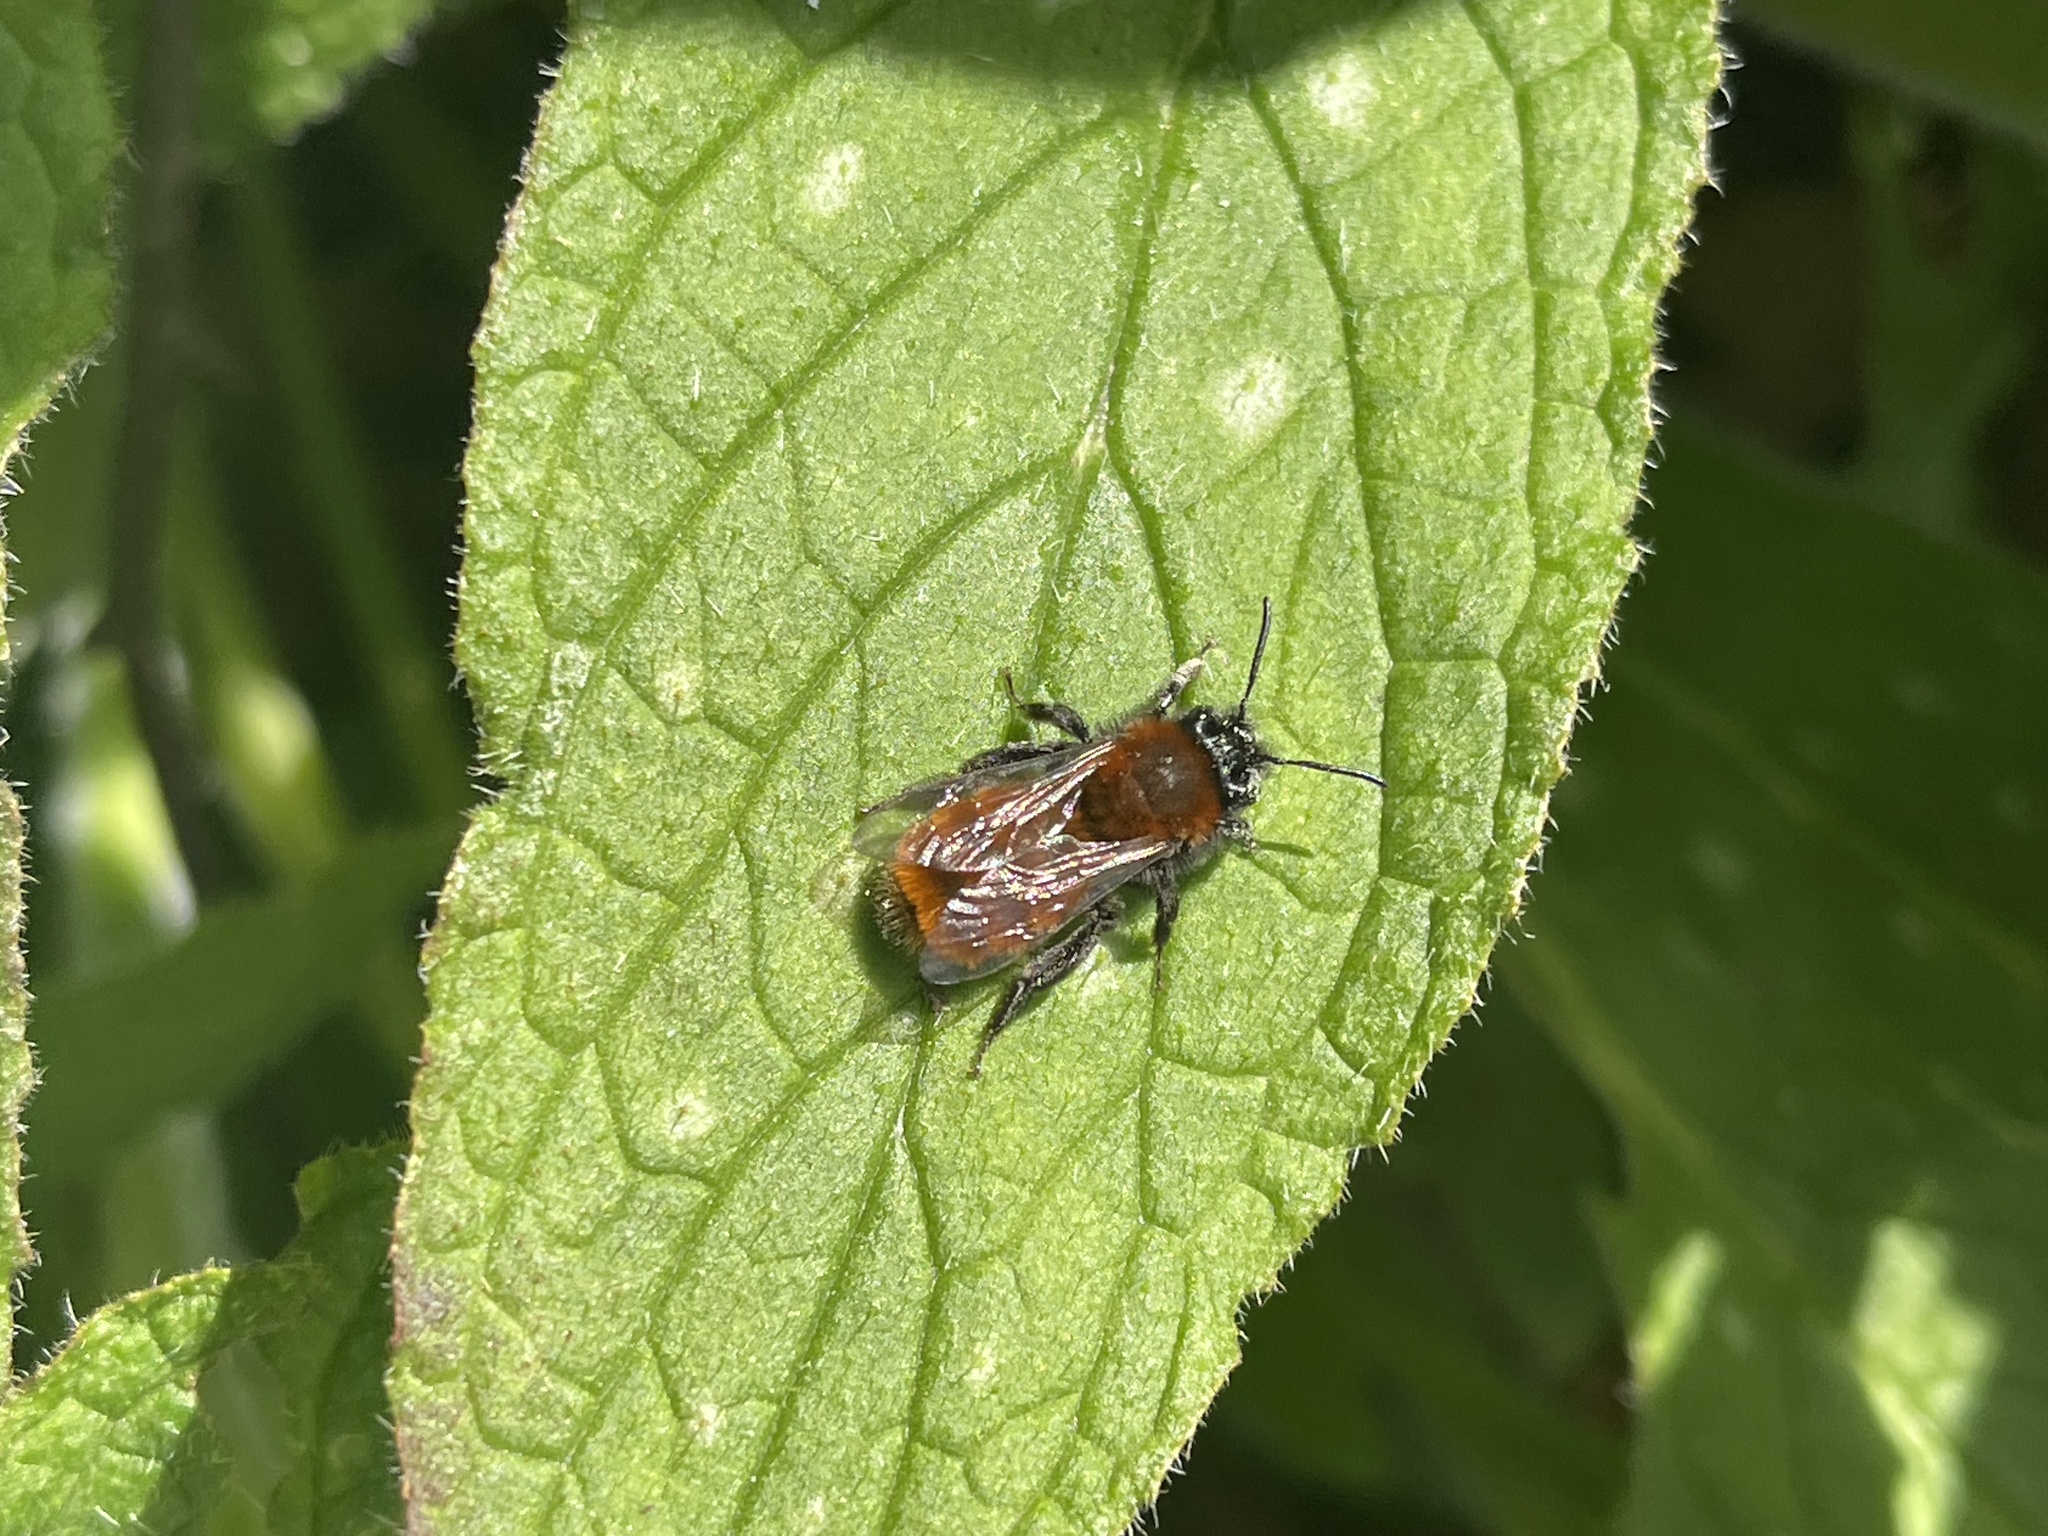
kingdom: Animalia
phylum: Arthropoda
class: Insecta
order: Hymenoptera
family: Andrenidae
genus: Andrena
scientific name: Andrena fulva
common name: Tawny mining bee
